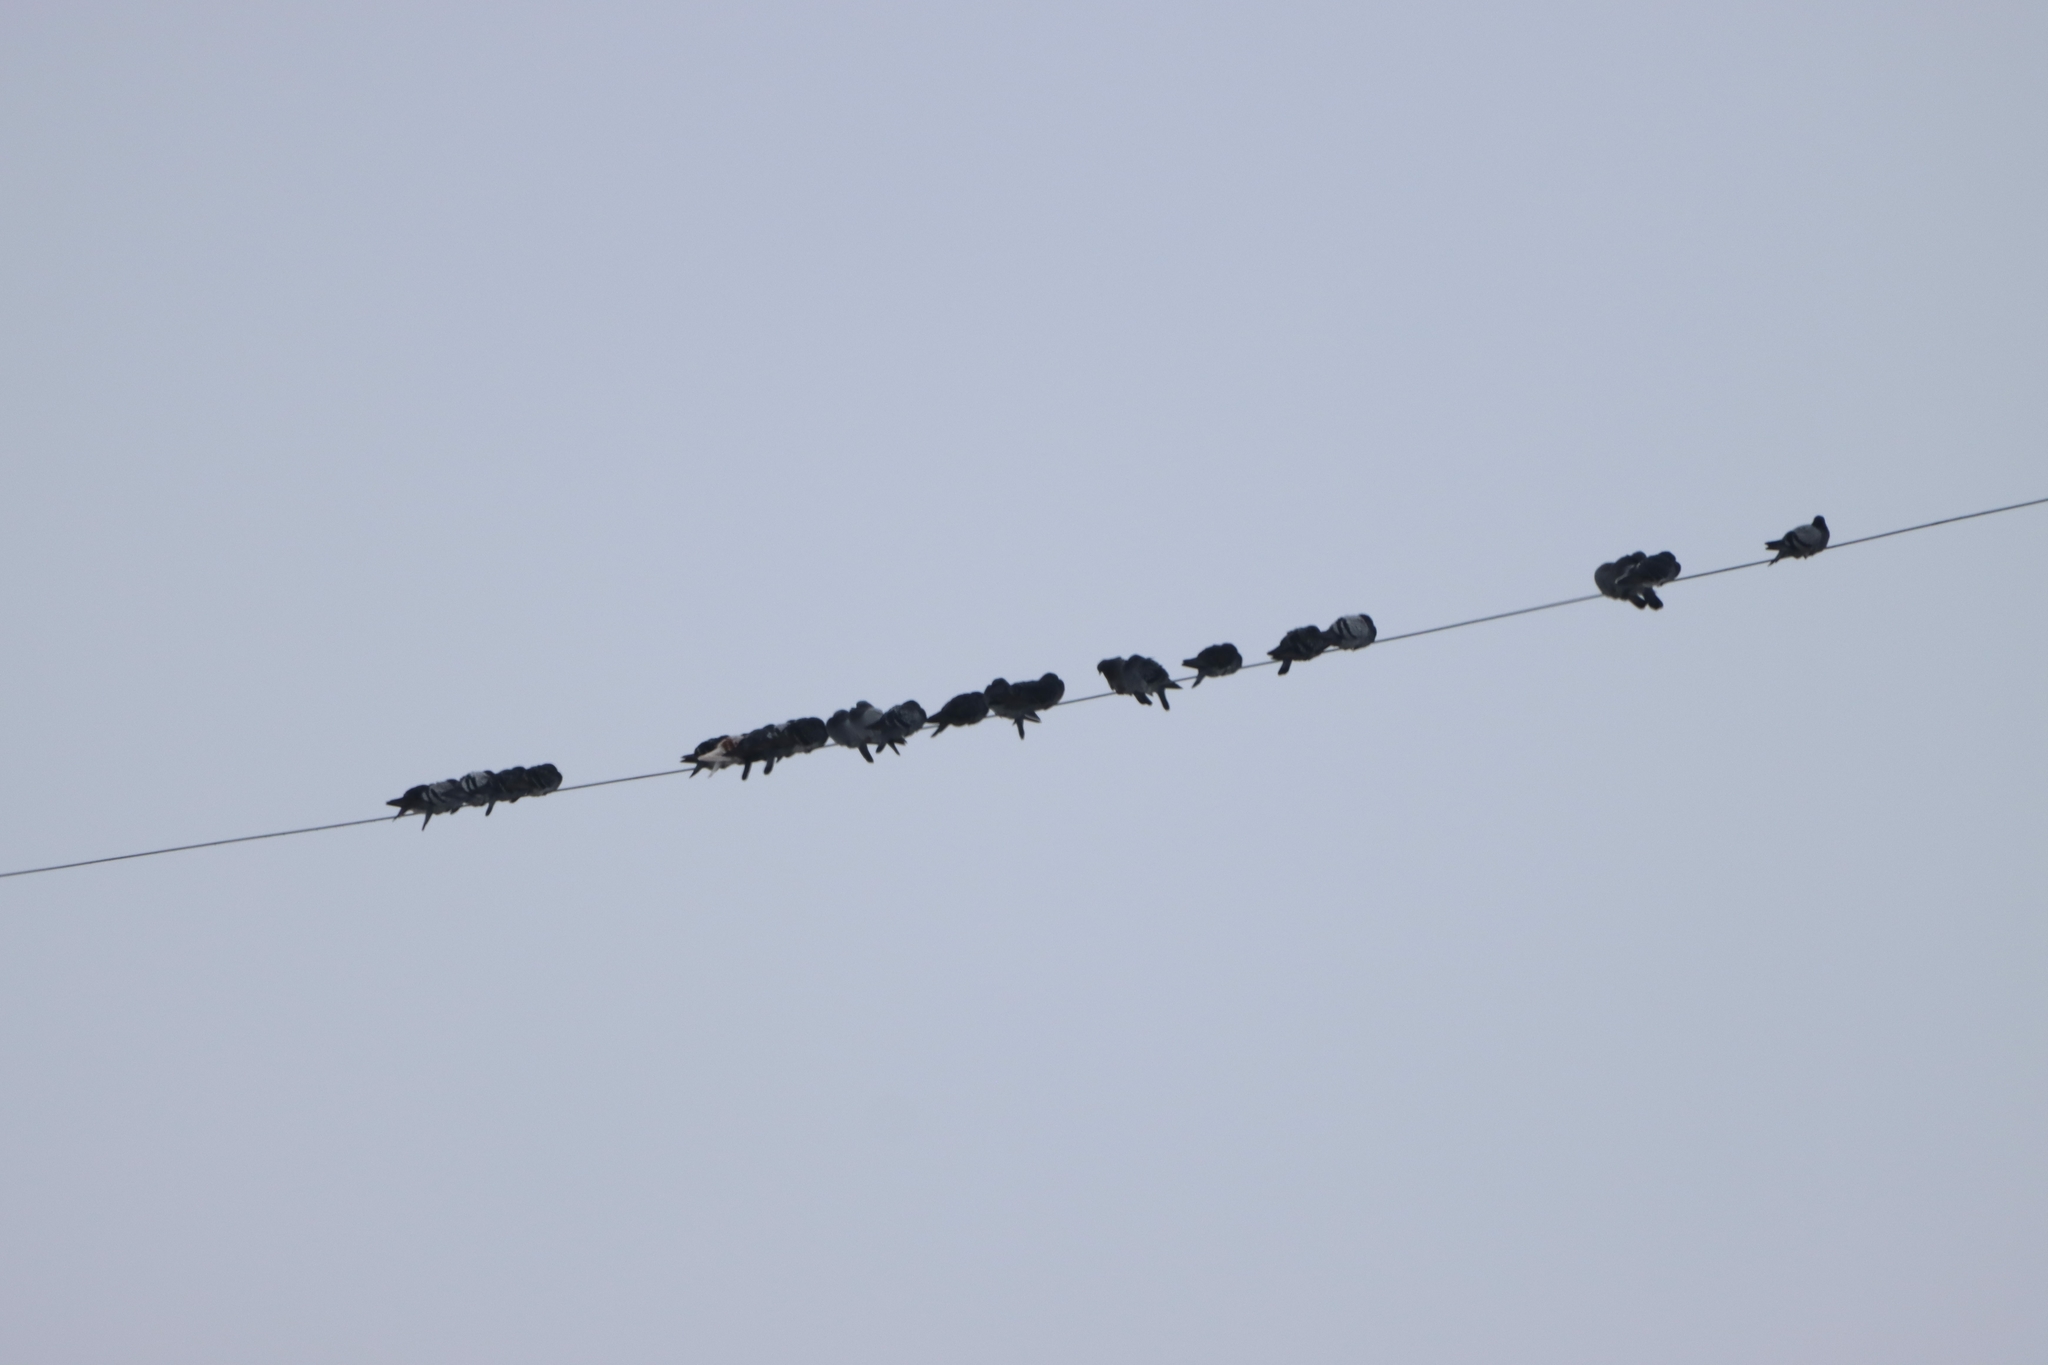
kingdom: Animalia
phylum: Chordata
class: Aves
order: Columbiformes
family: Columbidae
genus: Columba
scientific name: Columba livia
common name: Rock pigeon
